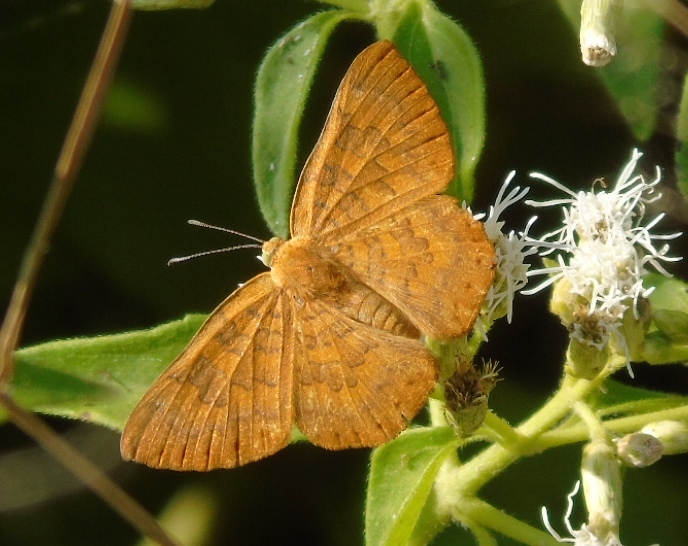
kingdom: Animalia
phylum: Arthropoda
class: Insecta
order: Lepidoptera
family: Lycaenidae
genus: Emesis
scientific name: Emesis
